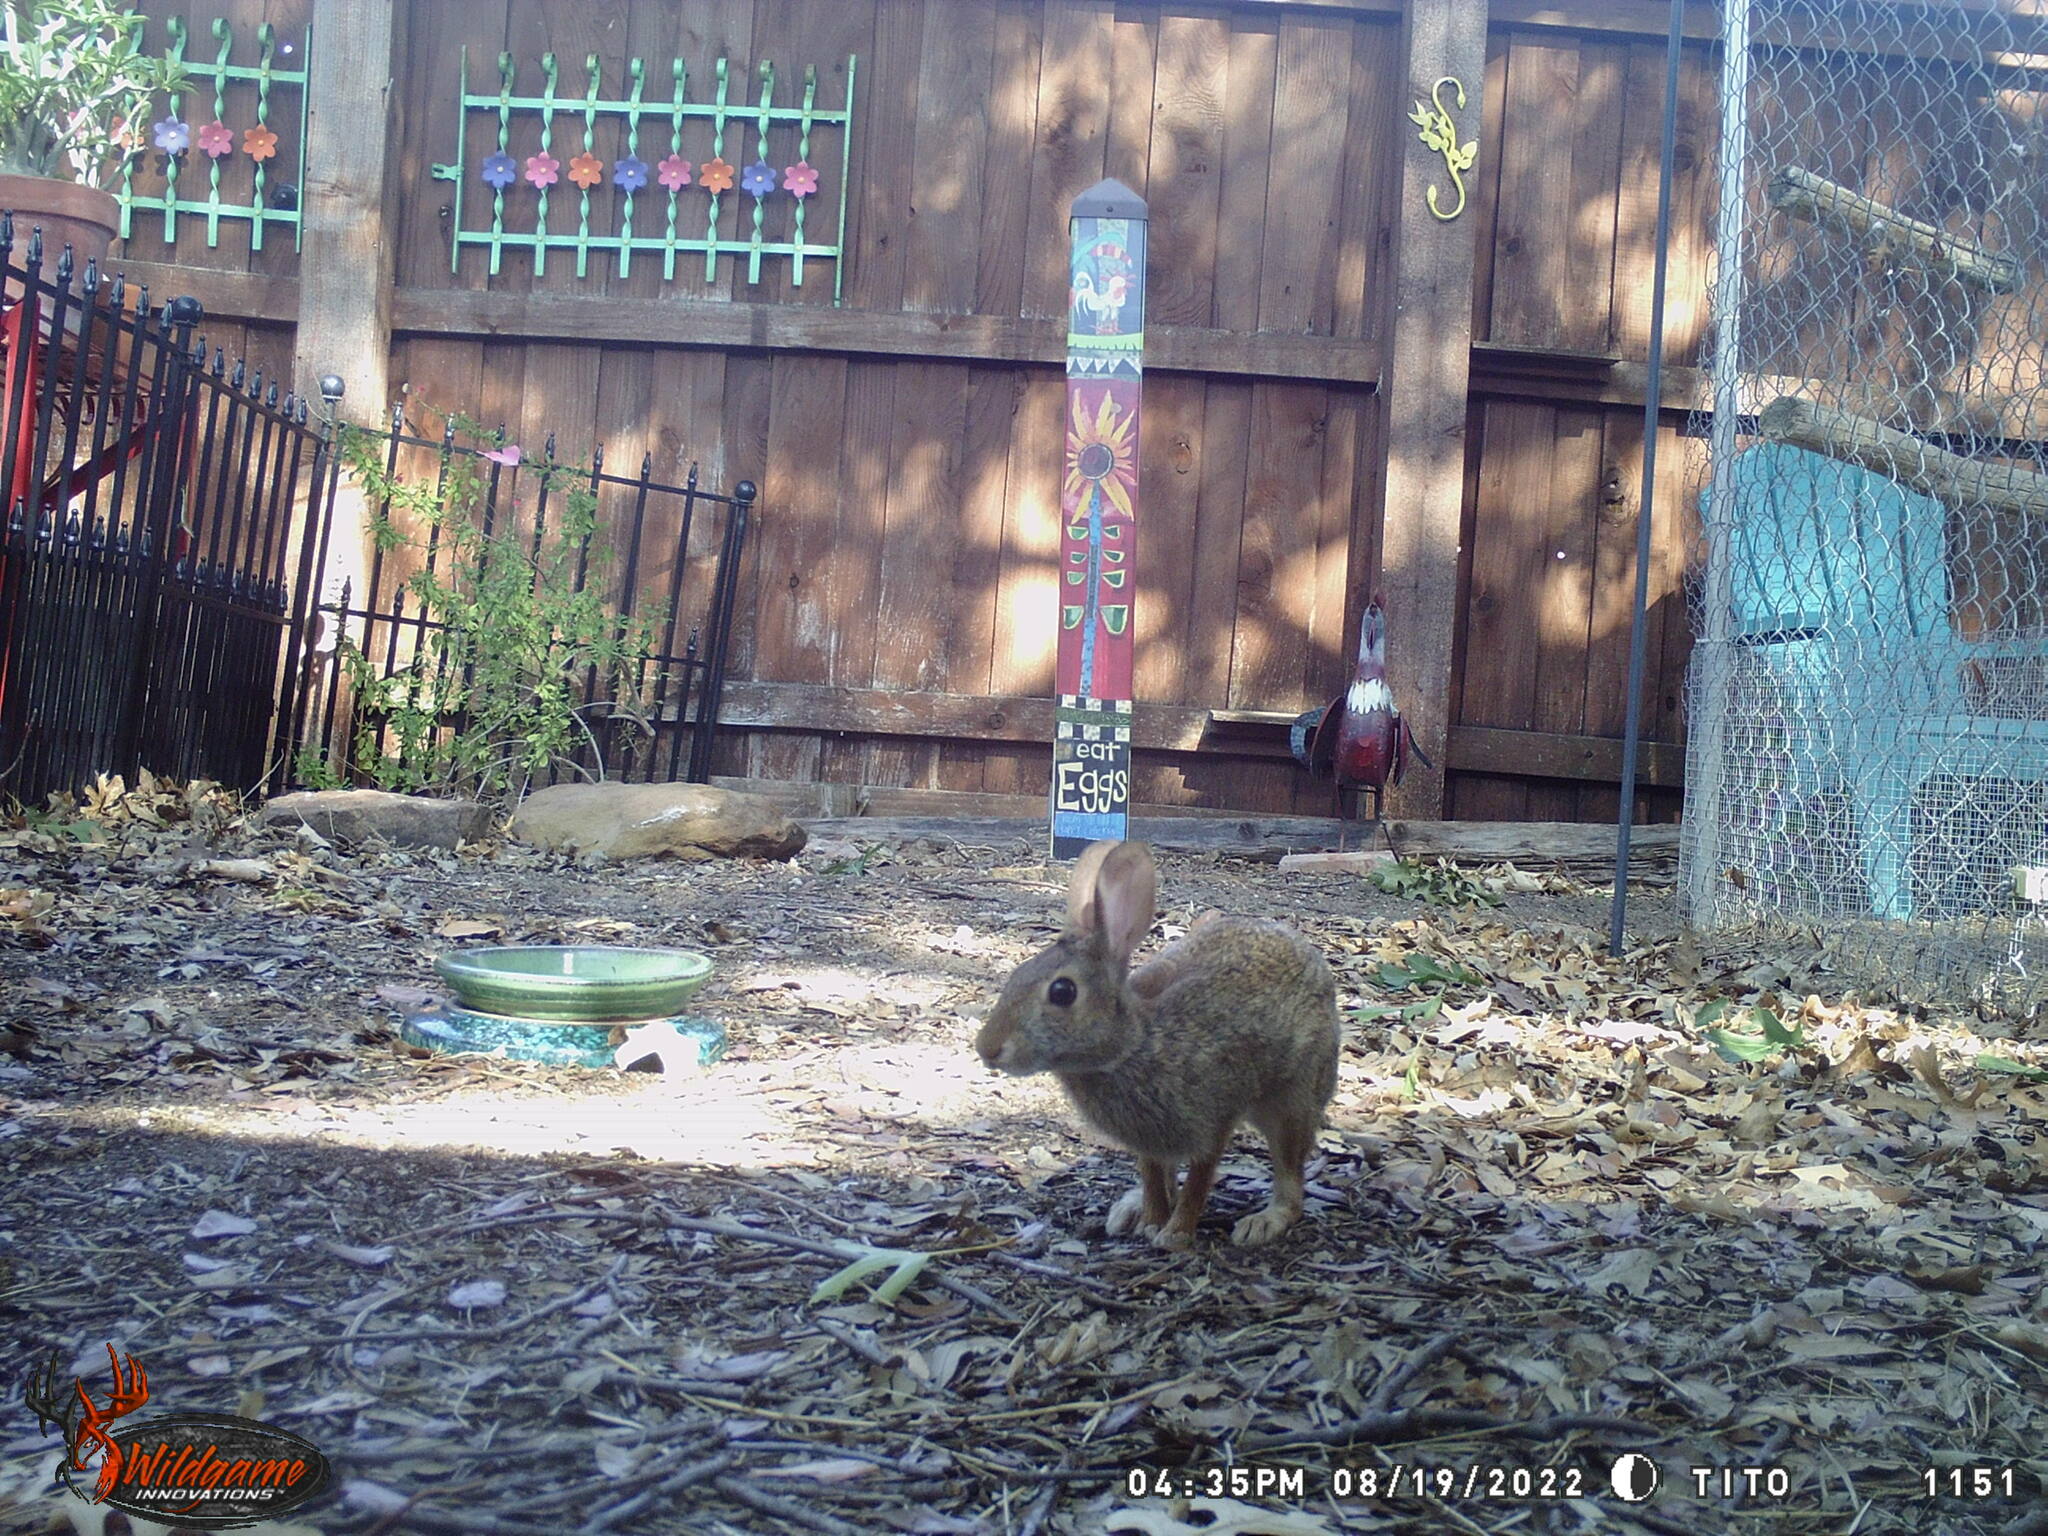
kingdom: Animalia
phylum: Chordata
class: Mammalia
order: Lagomorpha
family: Leporidae
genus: Sylvilagus
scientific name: Sylvilagus floridanus
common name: Eastern cottontail
